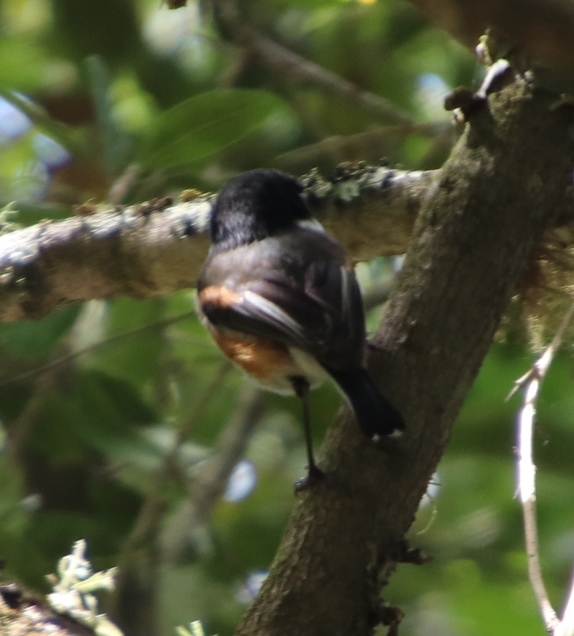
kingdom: Animalia
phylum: Chordata
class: Aves
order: Passeriformes
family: Platysteiridae
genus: Batis
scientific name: Batis capensis
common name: Cape batis
